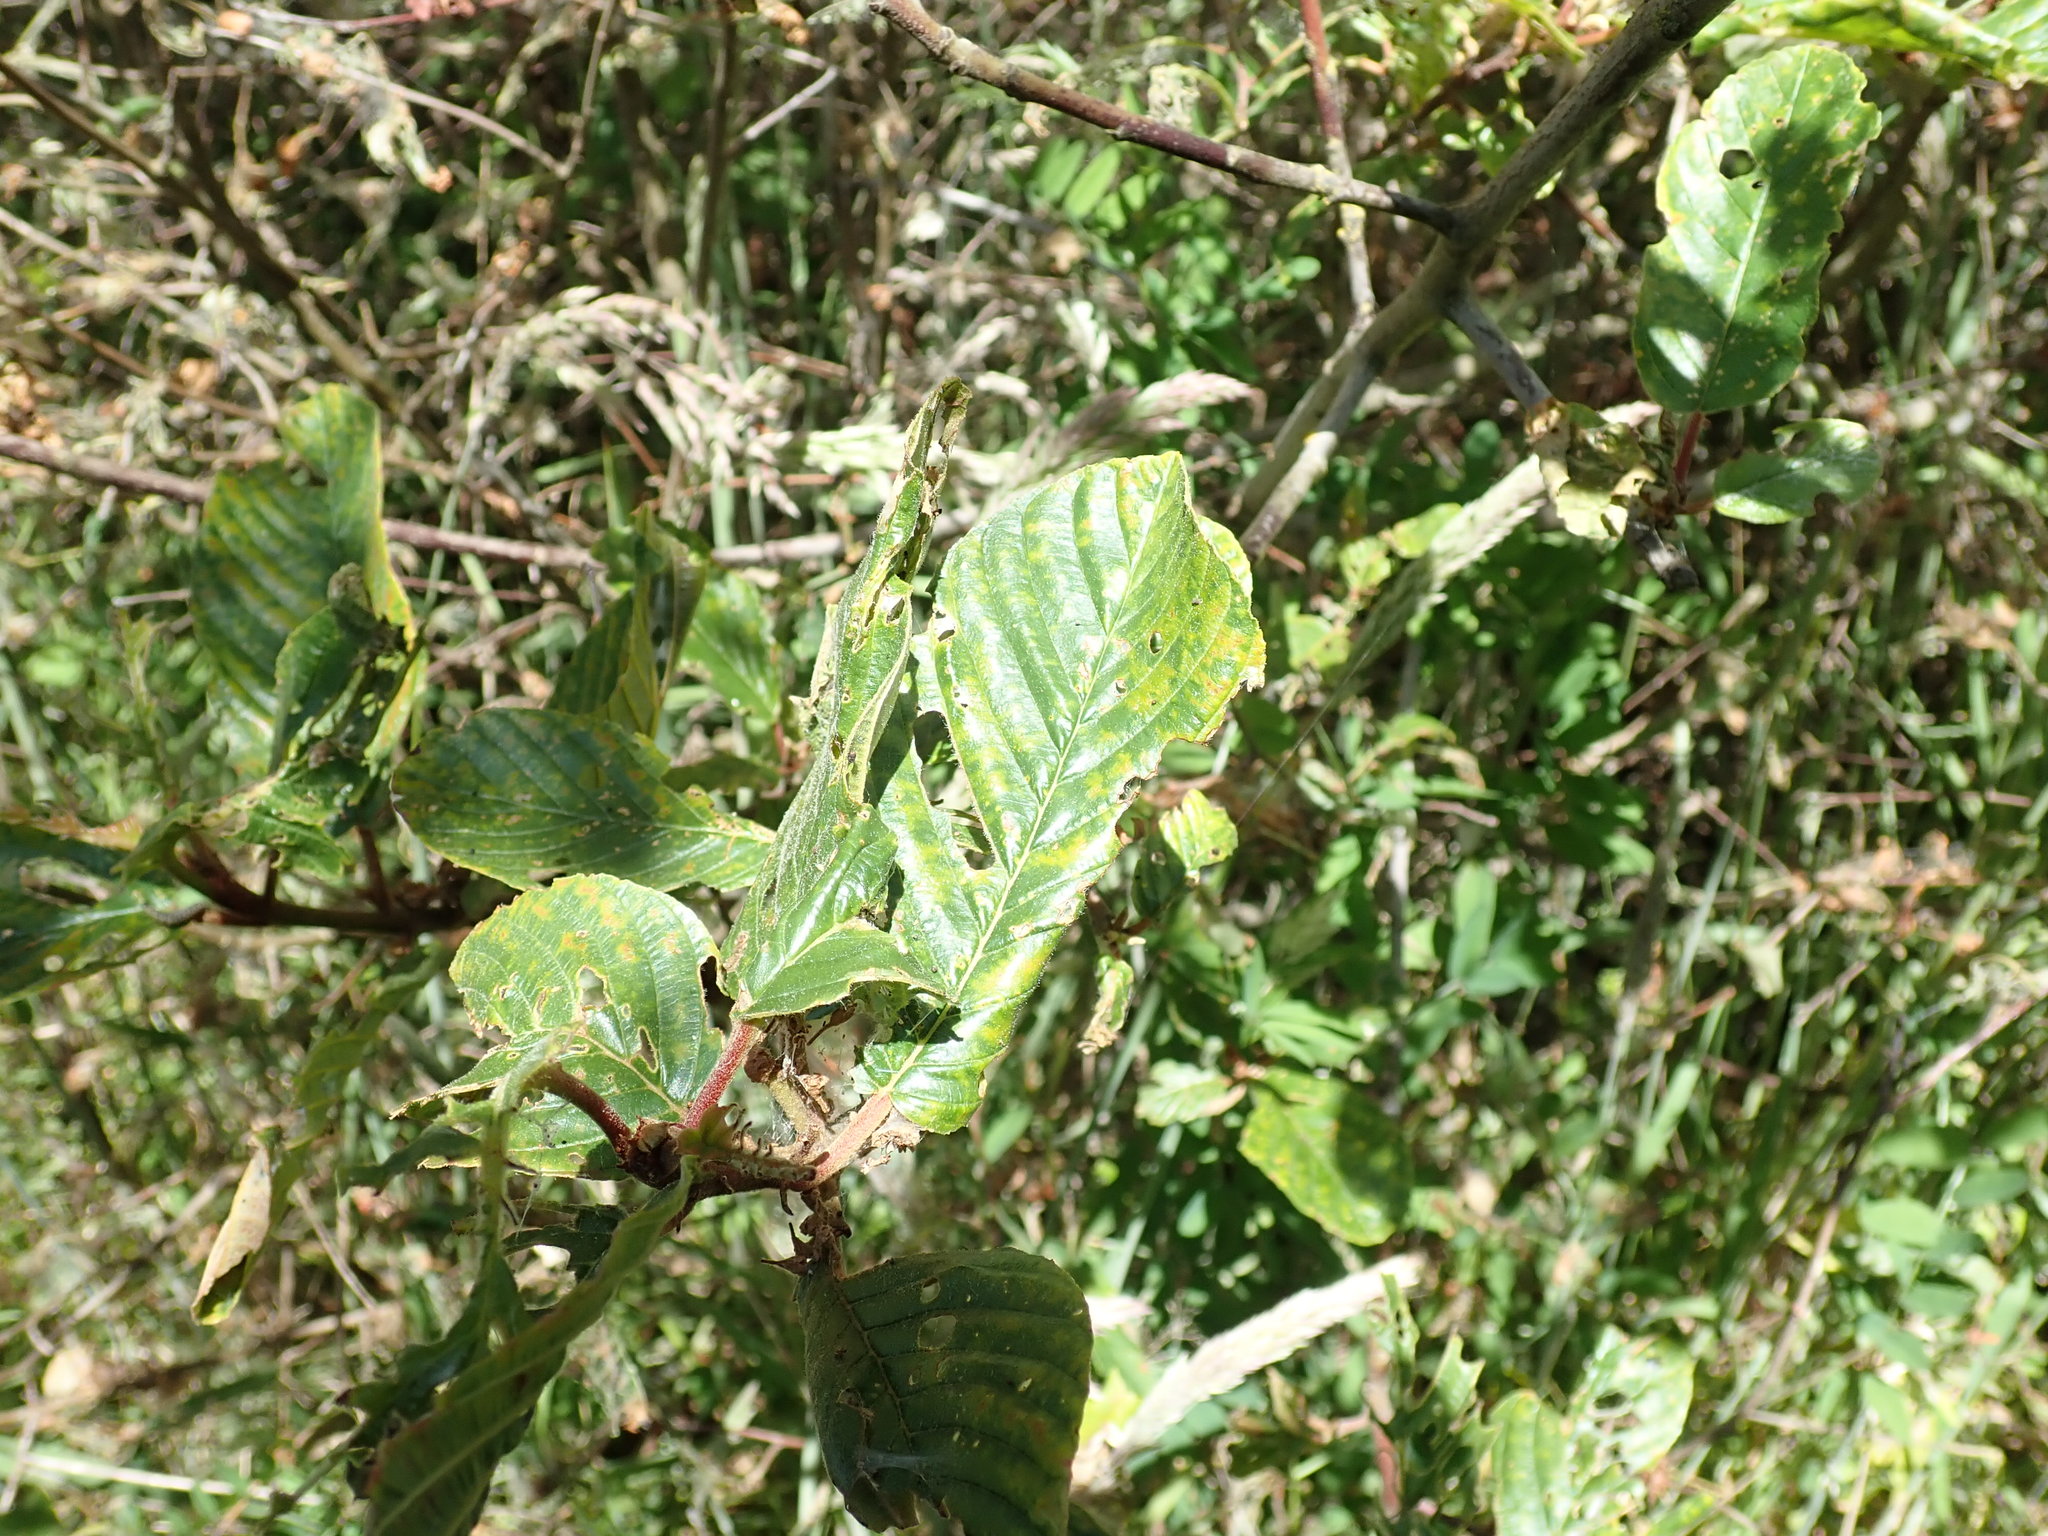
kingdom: Plantae
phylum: Tracheophyta
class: Magnoliopsida
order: Rosales
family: Rhamnaceae
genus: Frangula
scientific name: Frangula purshiana
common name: Cascara buckthorn
